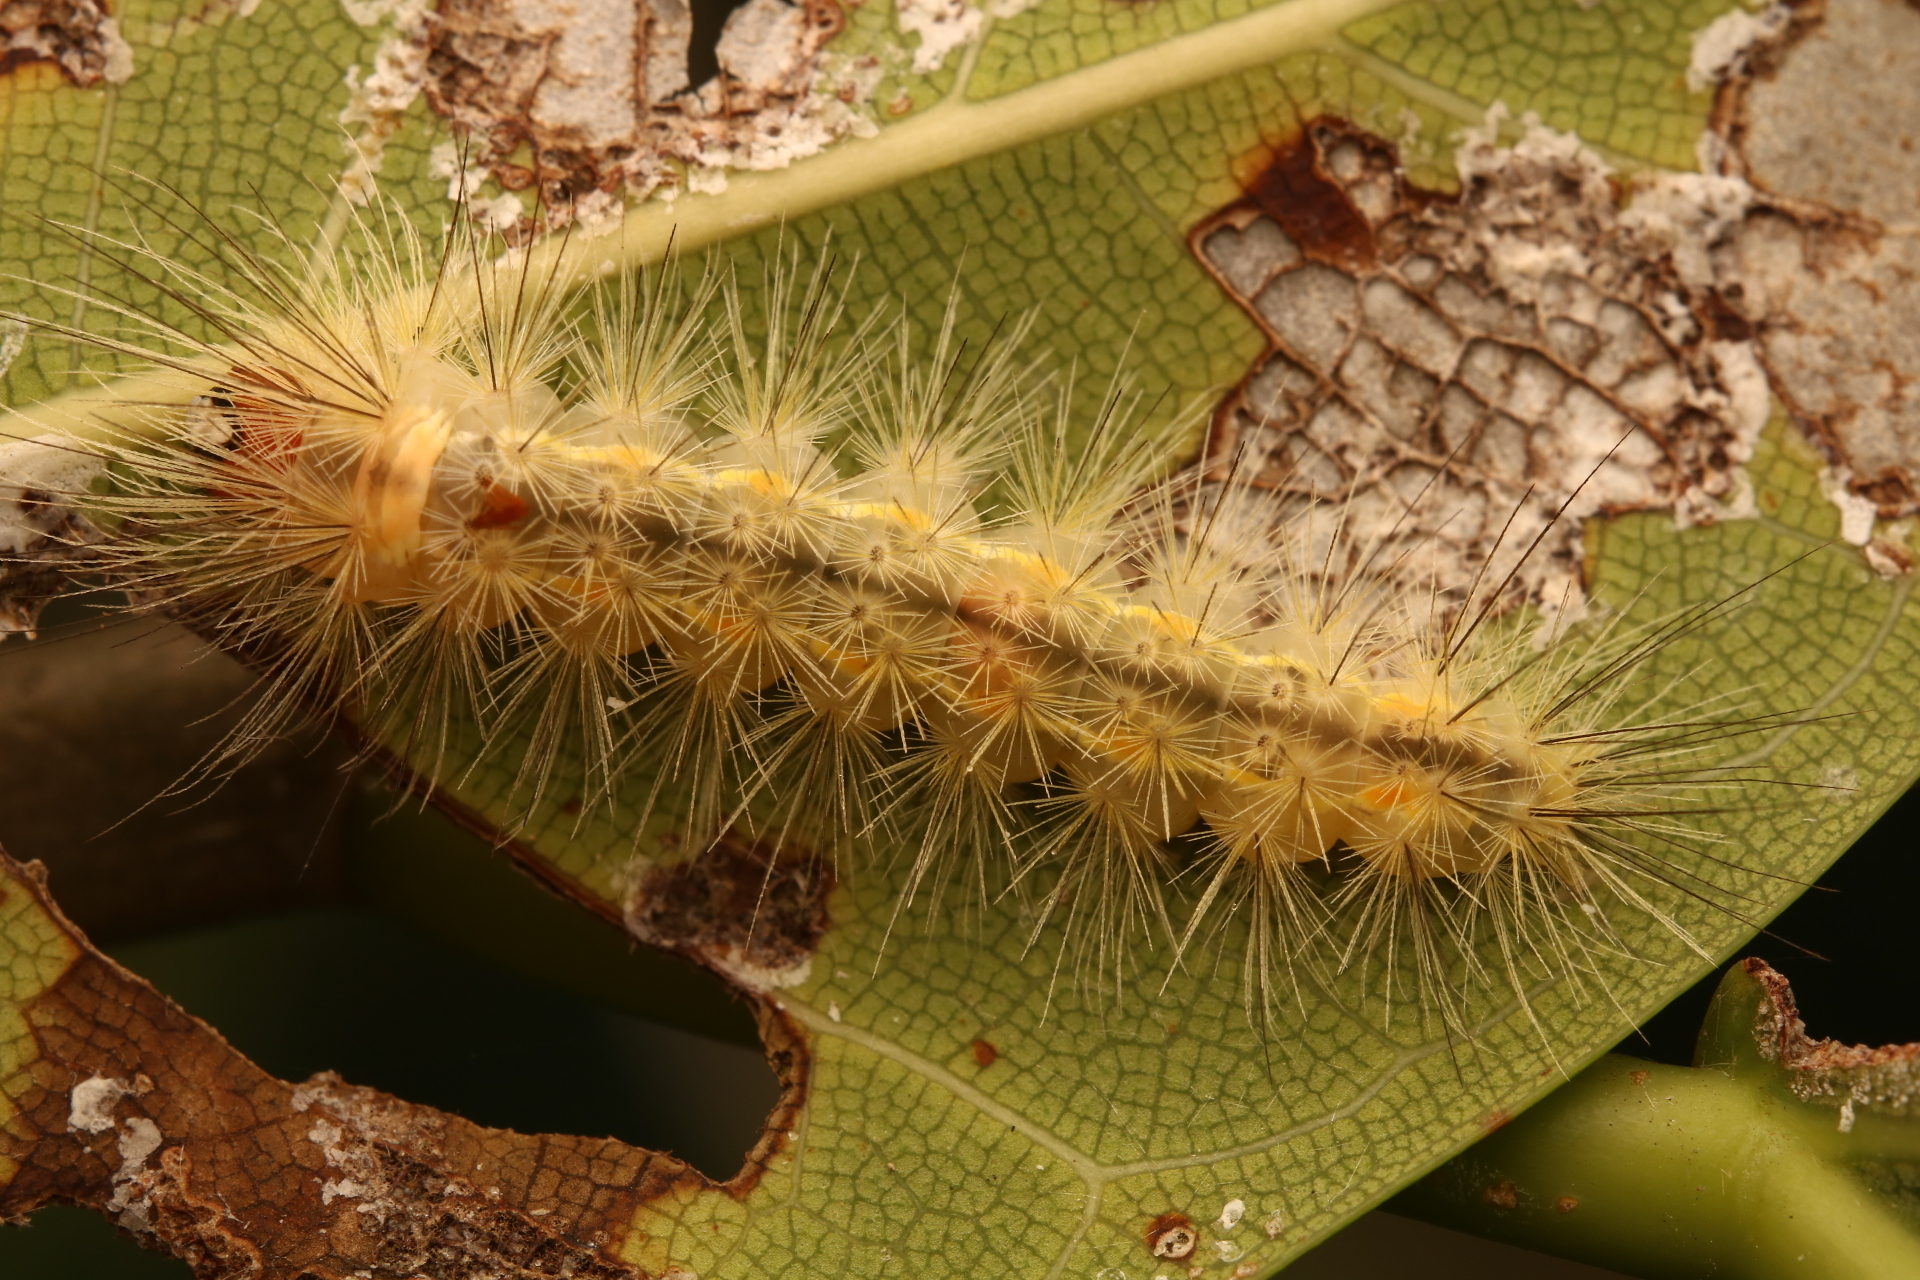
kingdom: Animalia
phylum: Arthropoda
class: Insecta
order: Lepidoptera
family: Erebidae
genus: Lymire
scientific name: Lymire edwardsii
